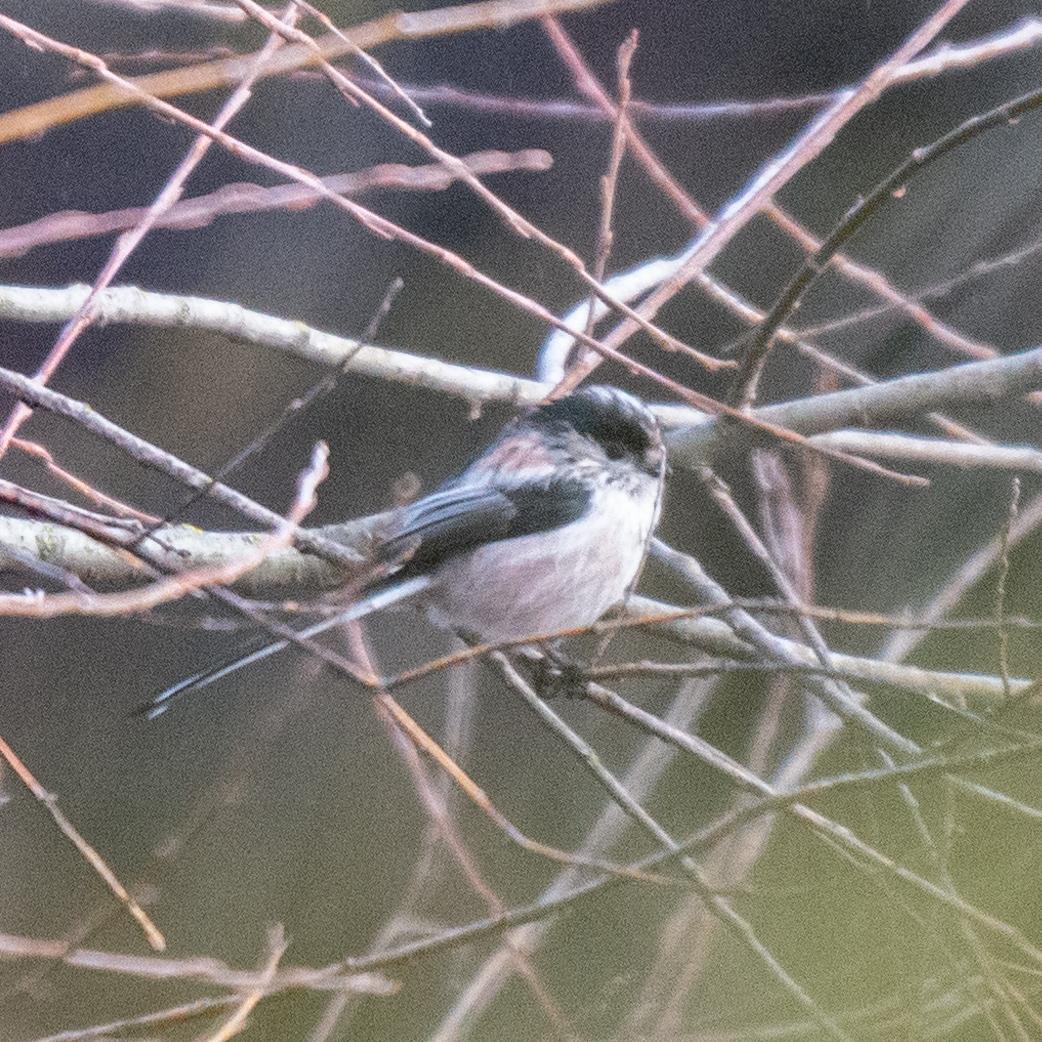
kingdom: Animalia
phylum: Chordata
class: Aves
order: Passeriformes
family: Aegithalidae
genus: Aegithalos
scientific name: Aegithalos caudatus
